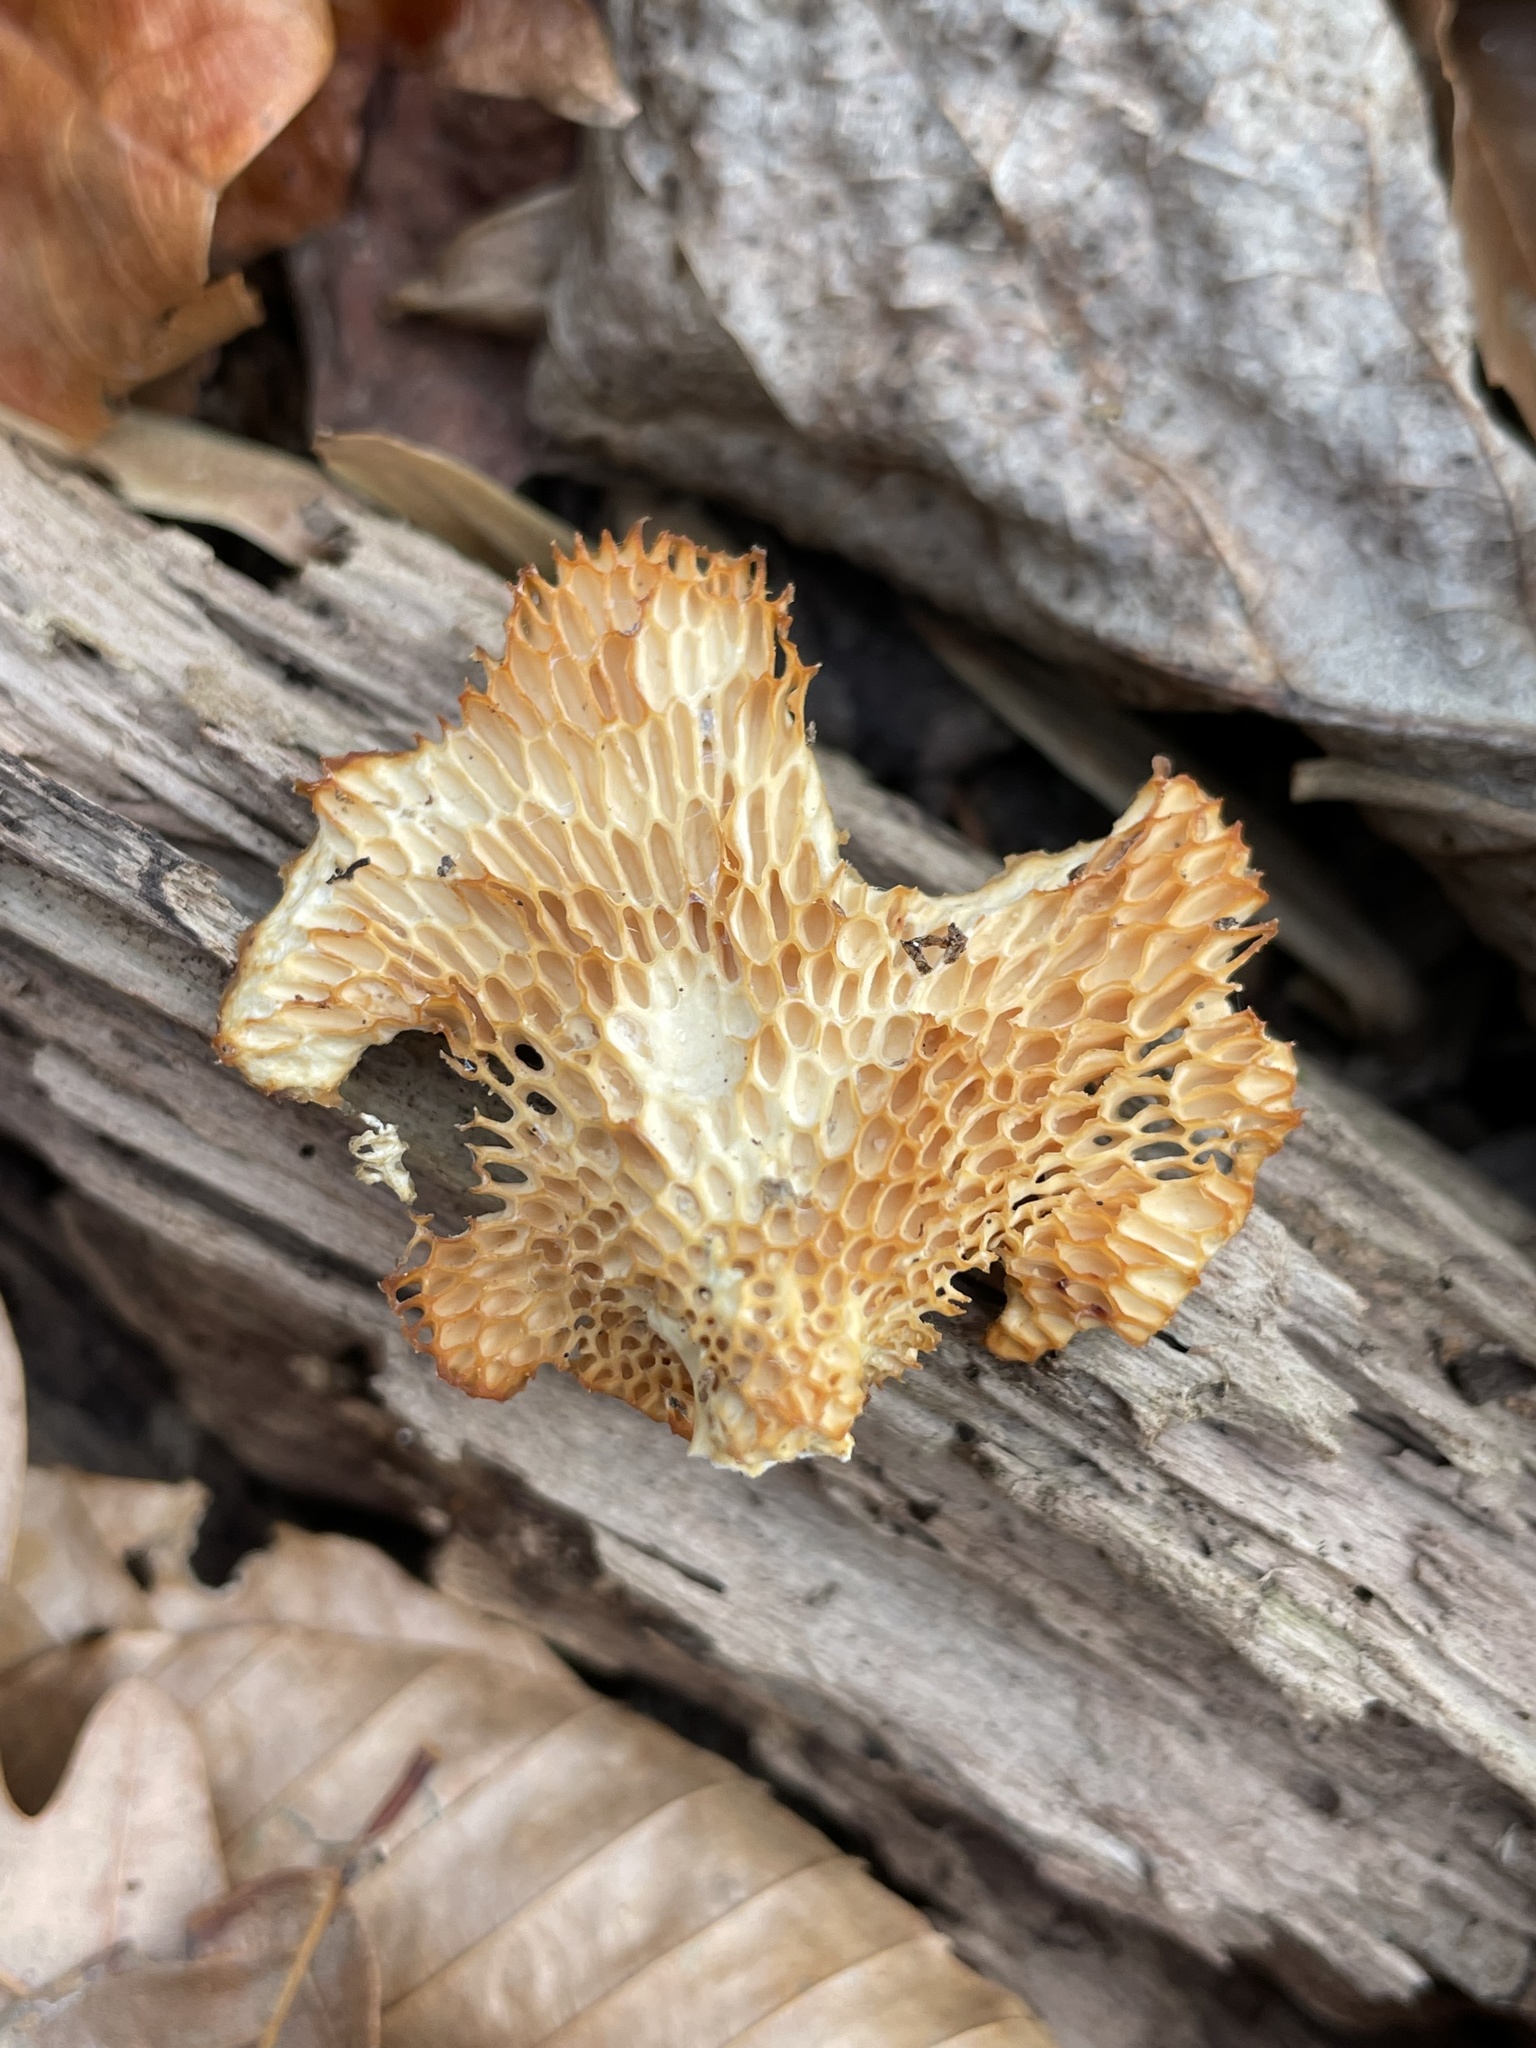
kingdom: Fungi
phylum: Basidiomycota
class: Agaricomycetes
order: Polyporales
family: Polyporaceae
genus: Neofavolus
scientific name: Neofavolus americanus
